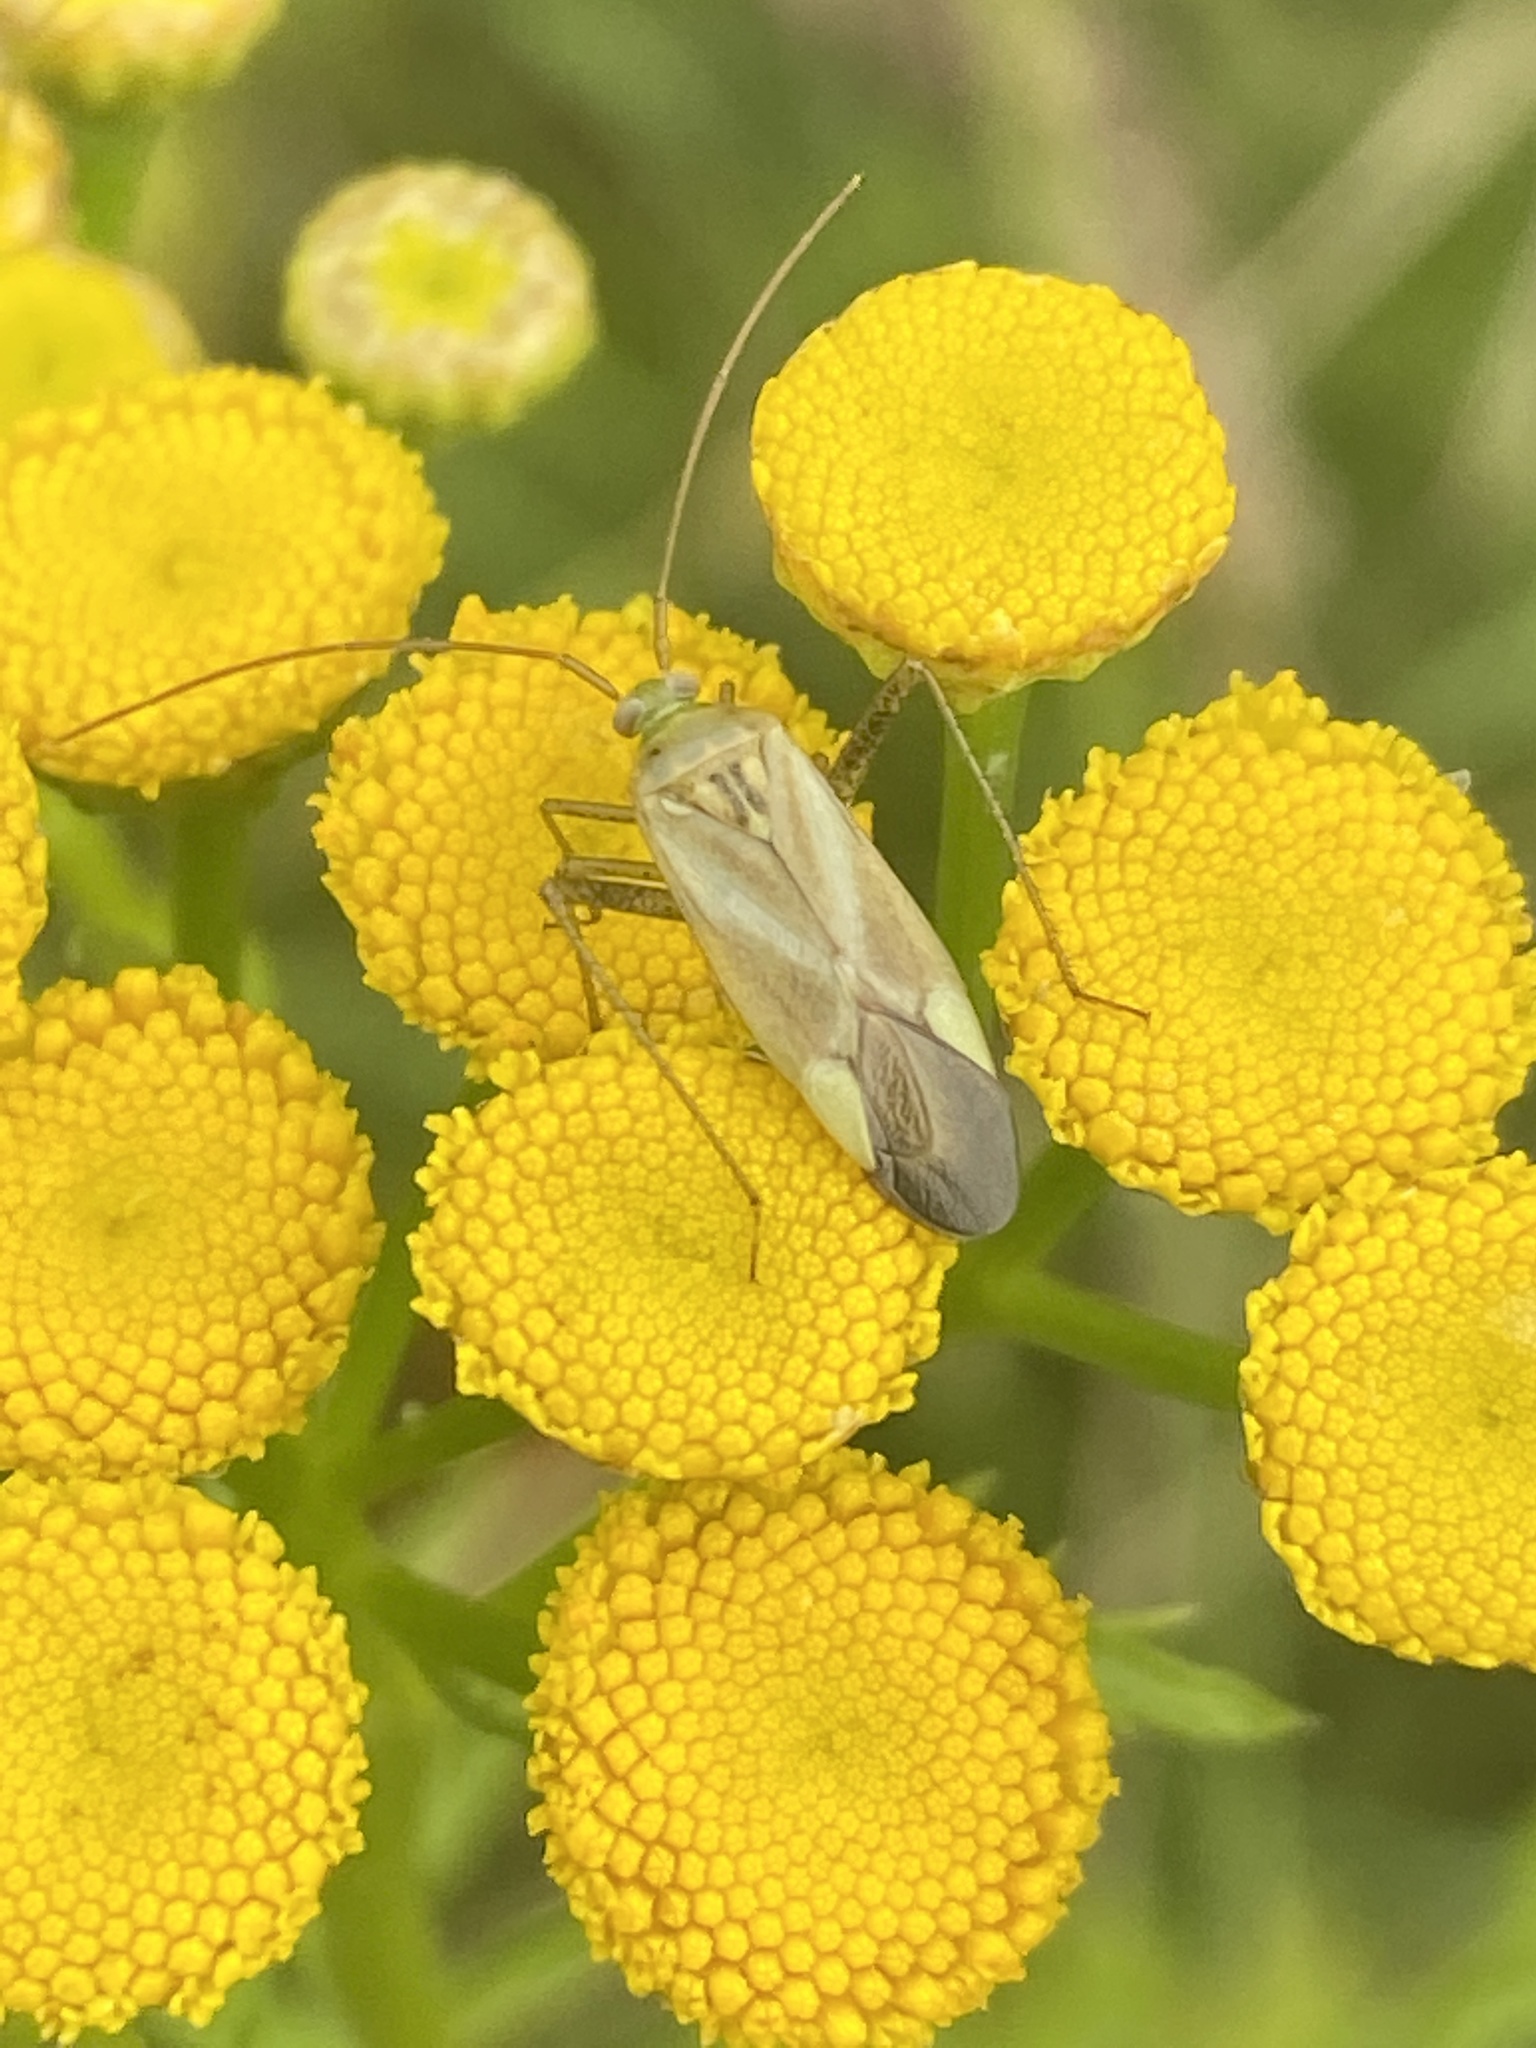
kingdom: Animalia
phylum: Arthropoda
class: Insecta
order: Hemiptera
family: Miridae
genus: Adelphocoris
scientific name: Adelphocoris lineolatus
